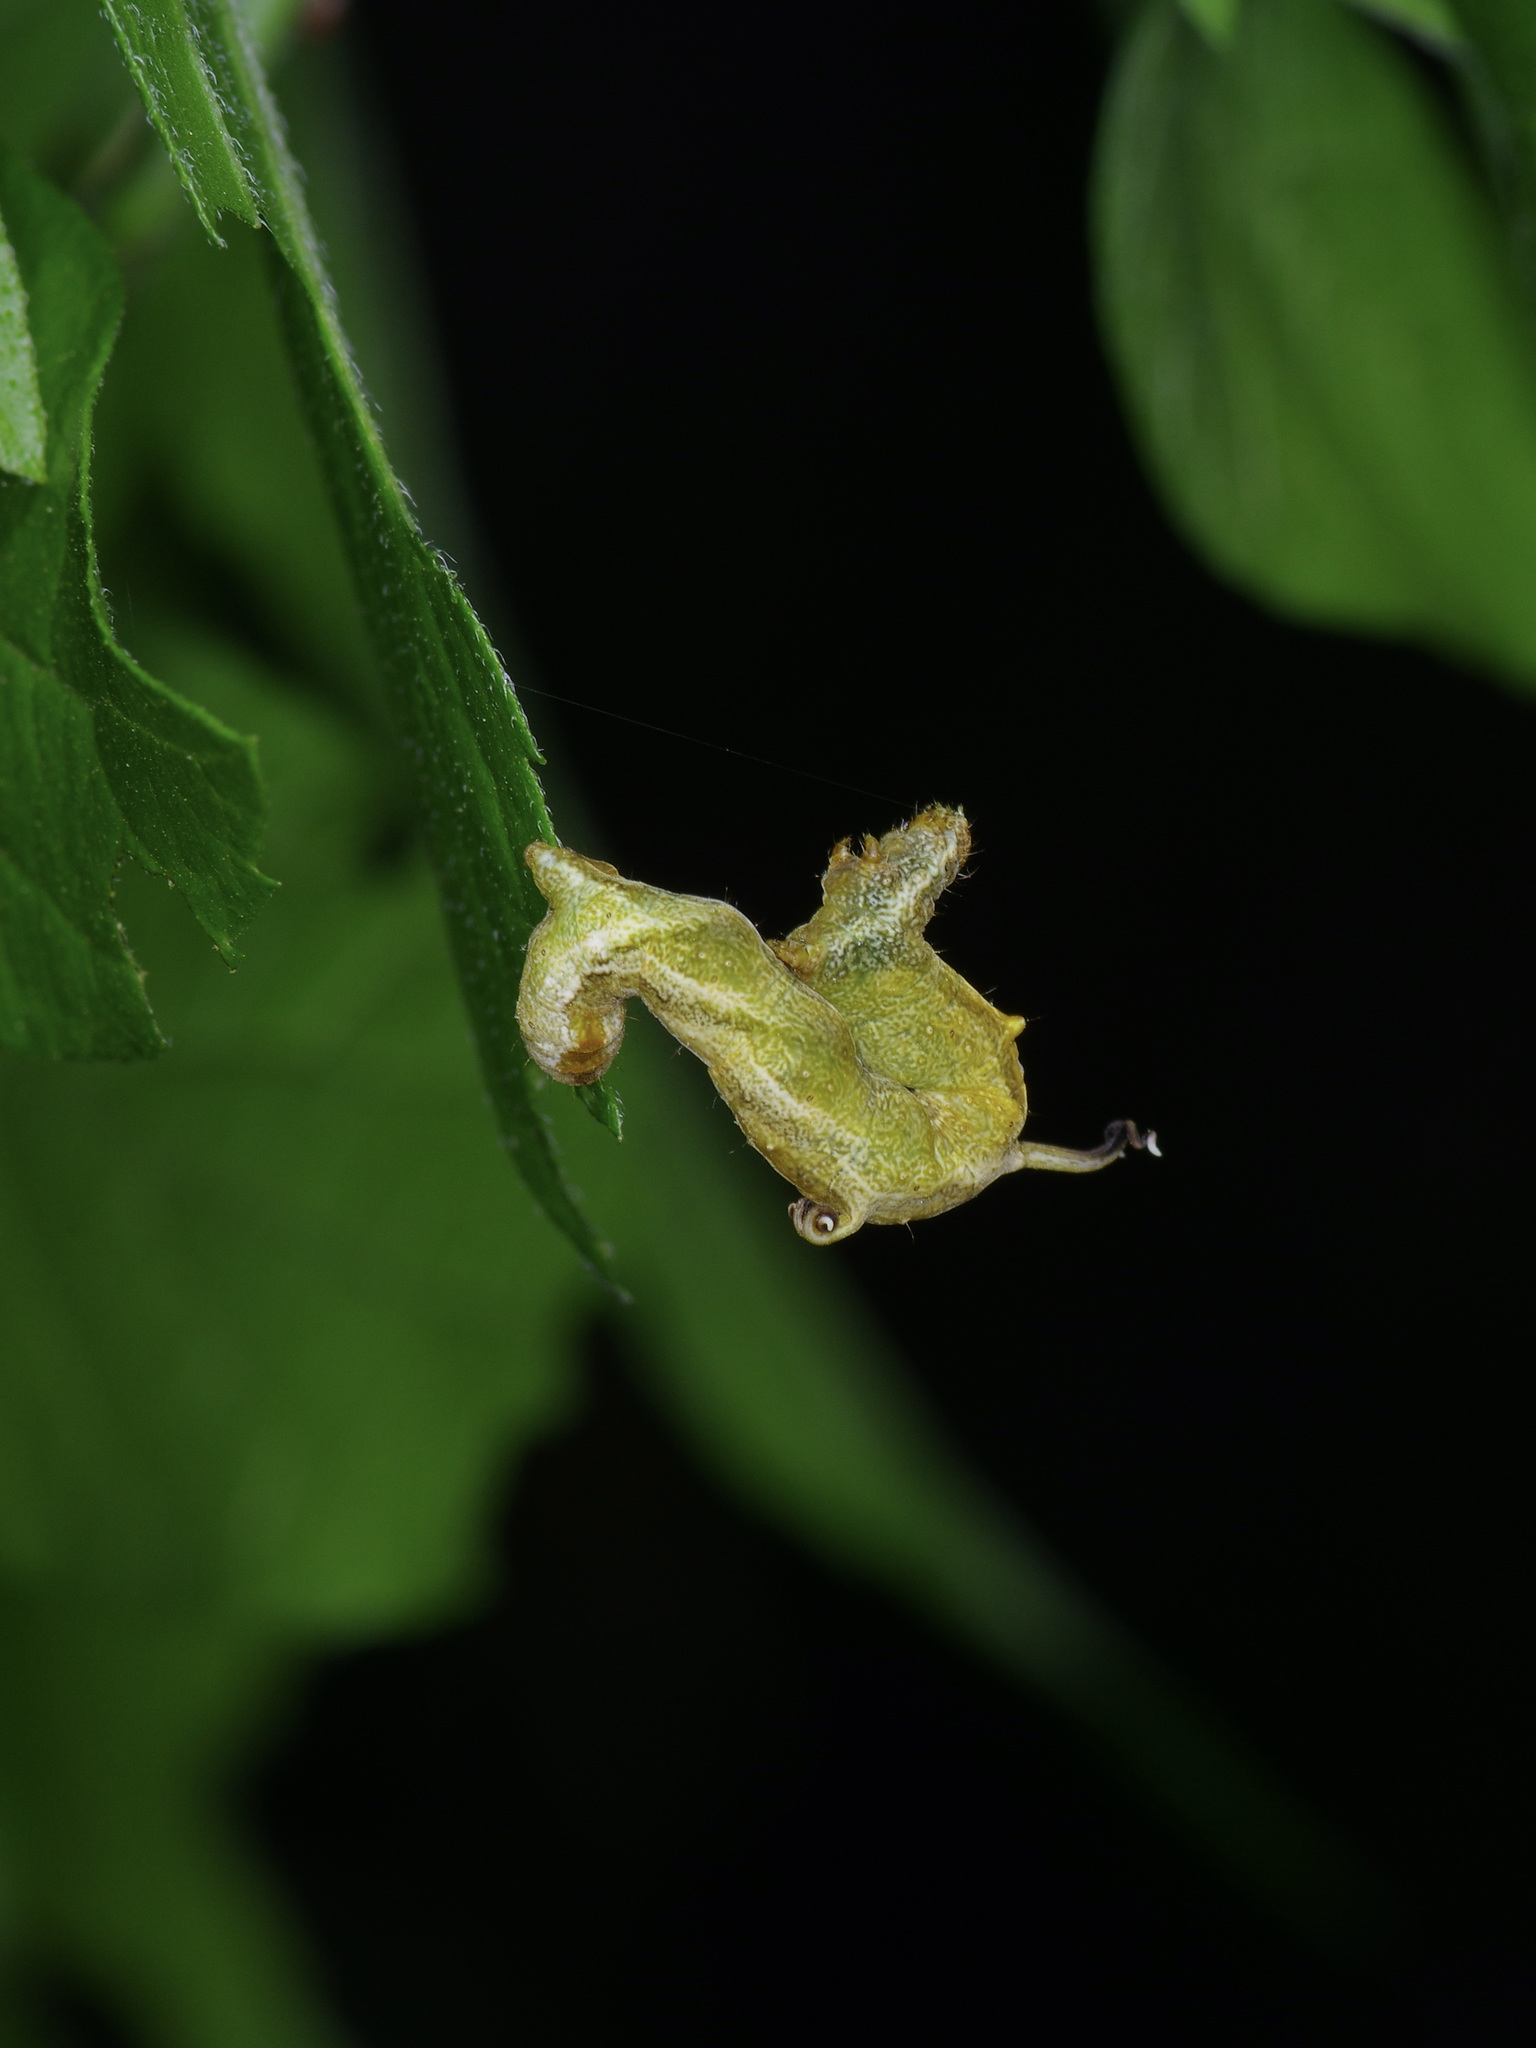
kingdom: Animalia
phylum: Arthropoda
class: Insecta
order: Lepidoptera
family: Geometridae
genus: Nematocampa
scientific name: Nematocampa resistaria
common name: Horned spanworm moth
